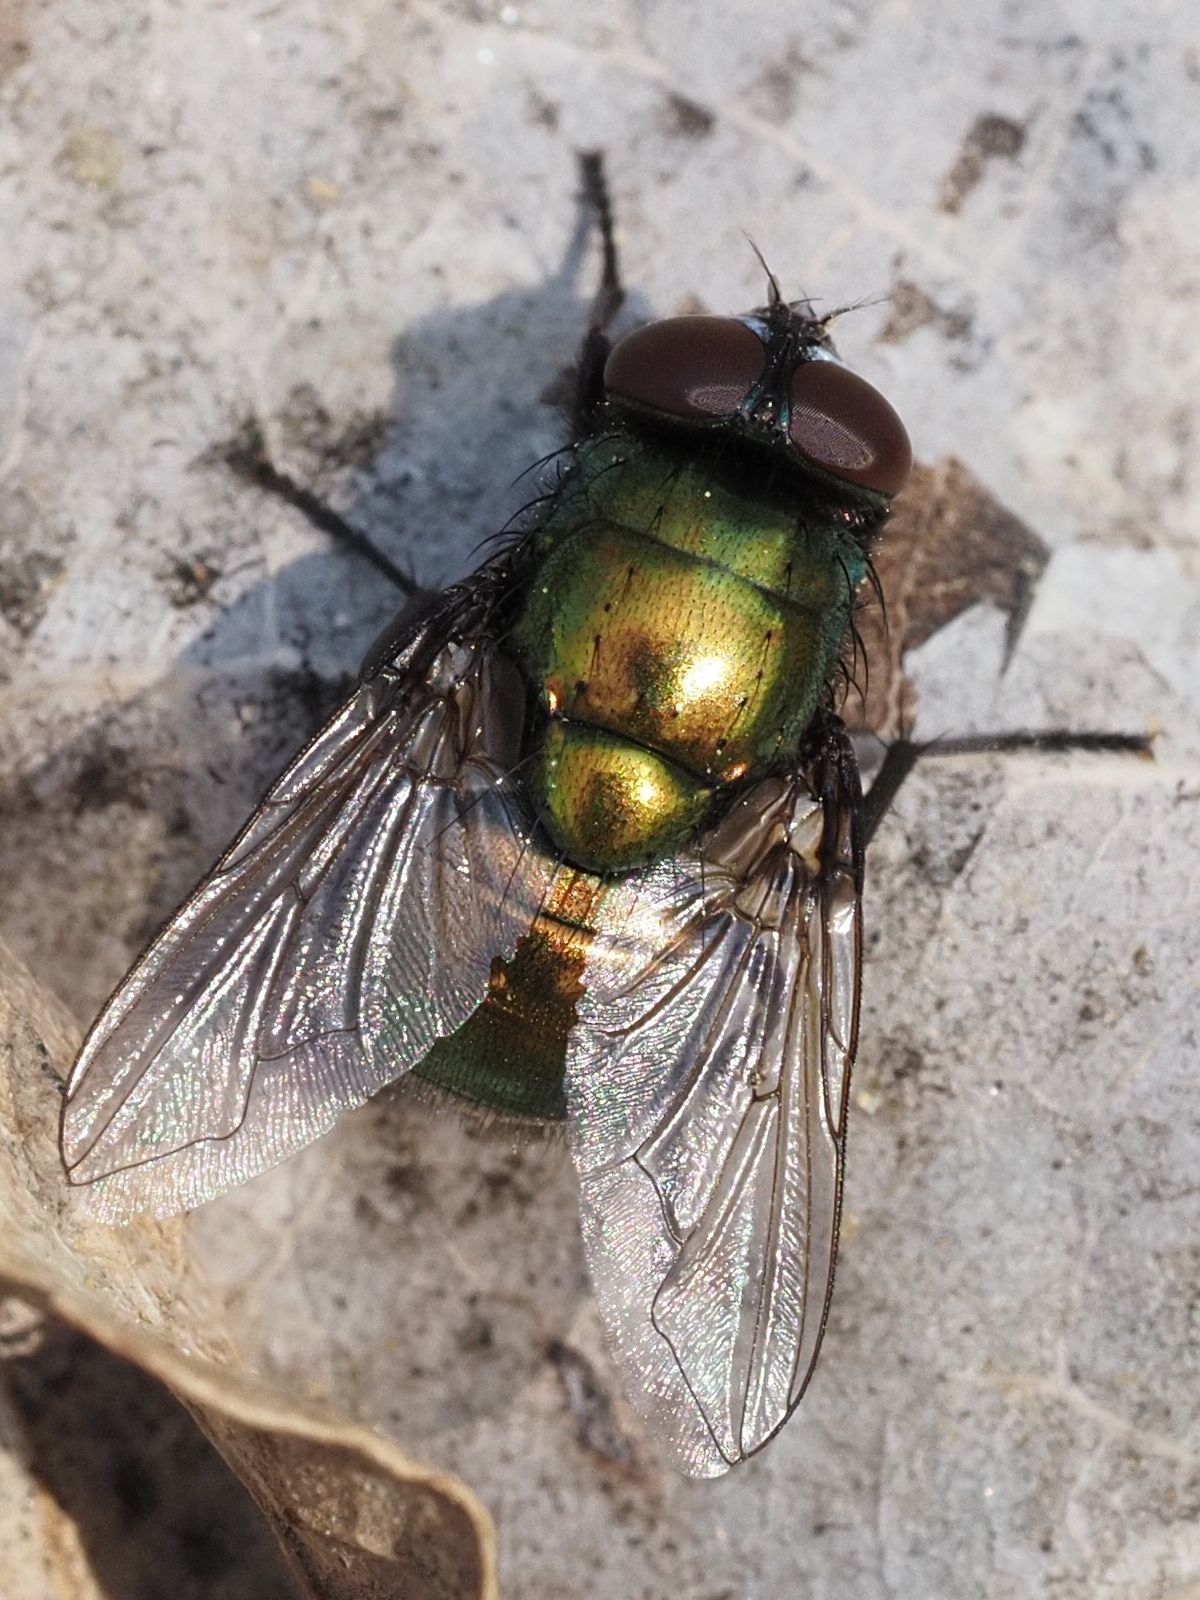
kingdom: Animalia
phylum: Arthropoda
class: Insecta
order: Diptera
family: Muscidae
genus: Neomyia
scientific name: Neomyia viridescens
